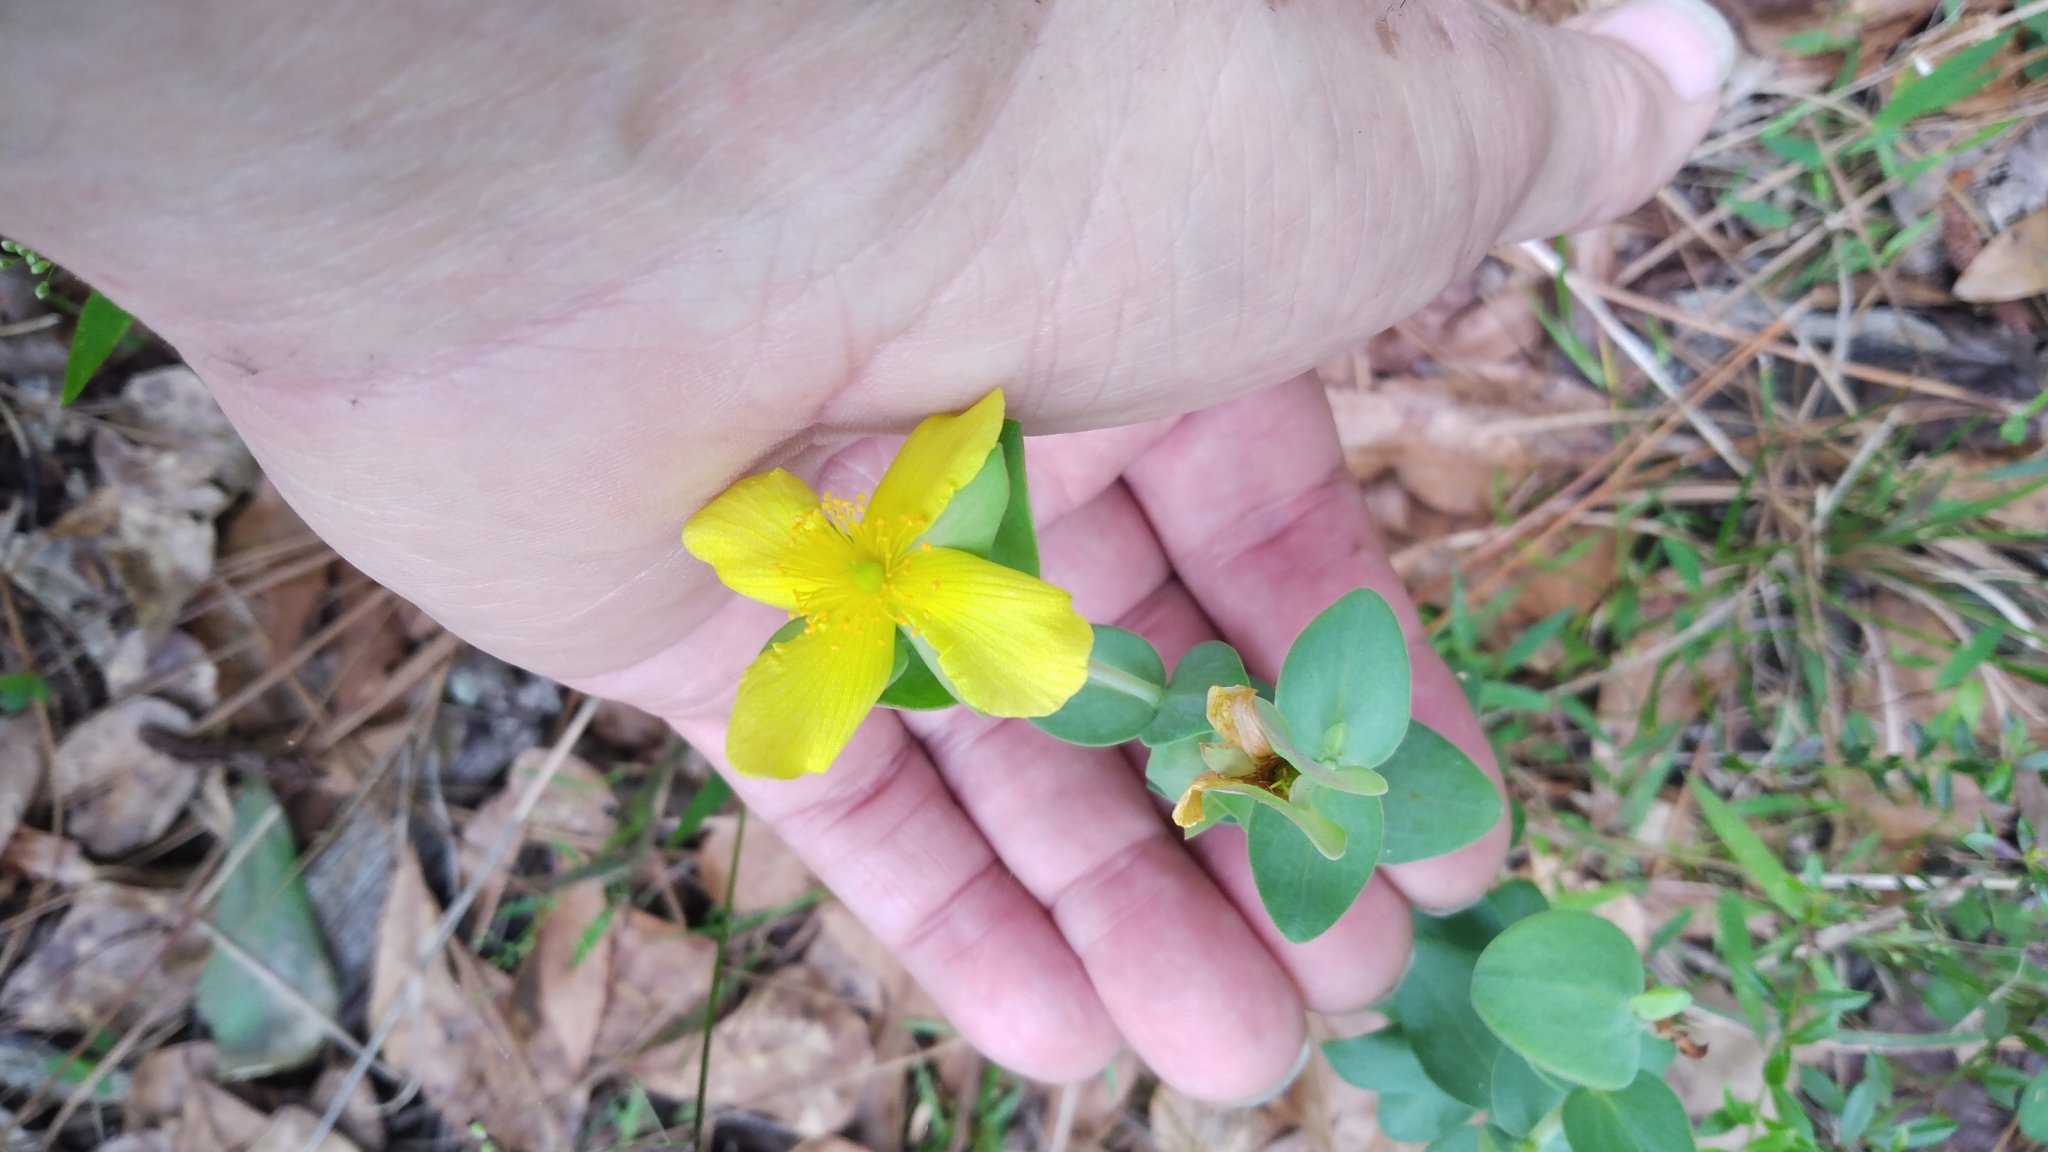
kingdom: Plantae
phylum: Tracheophyta
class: Magnoliopsida
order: Malpighiales
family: Hypericaceae
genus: Hypericum
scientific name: Hypericum tetrapetalum
